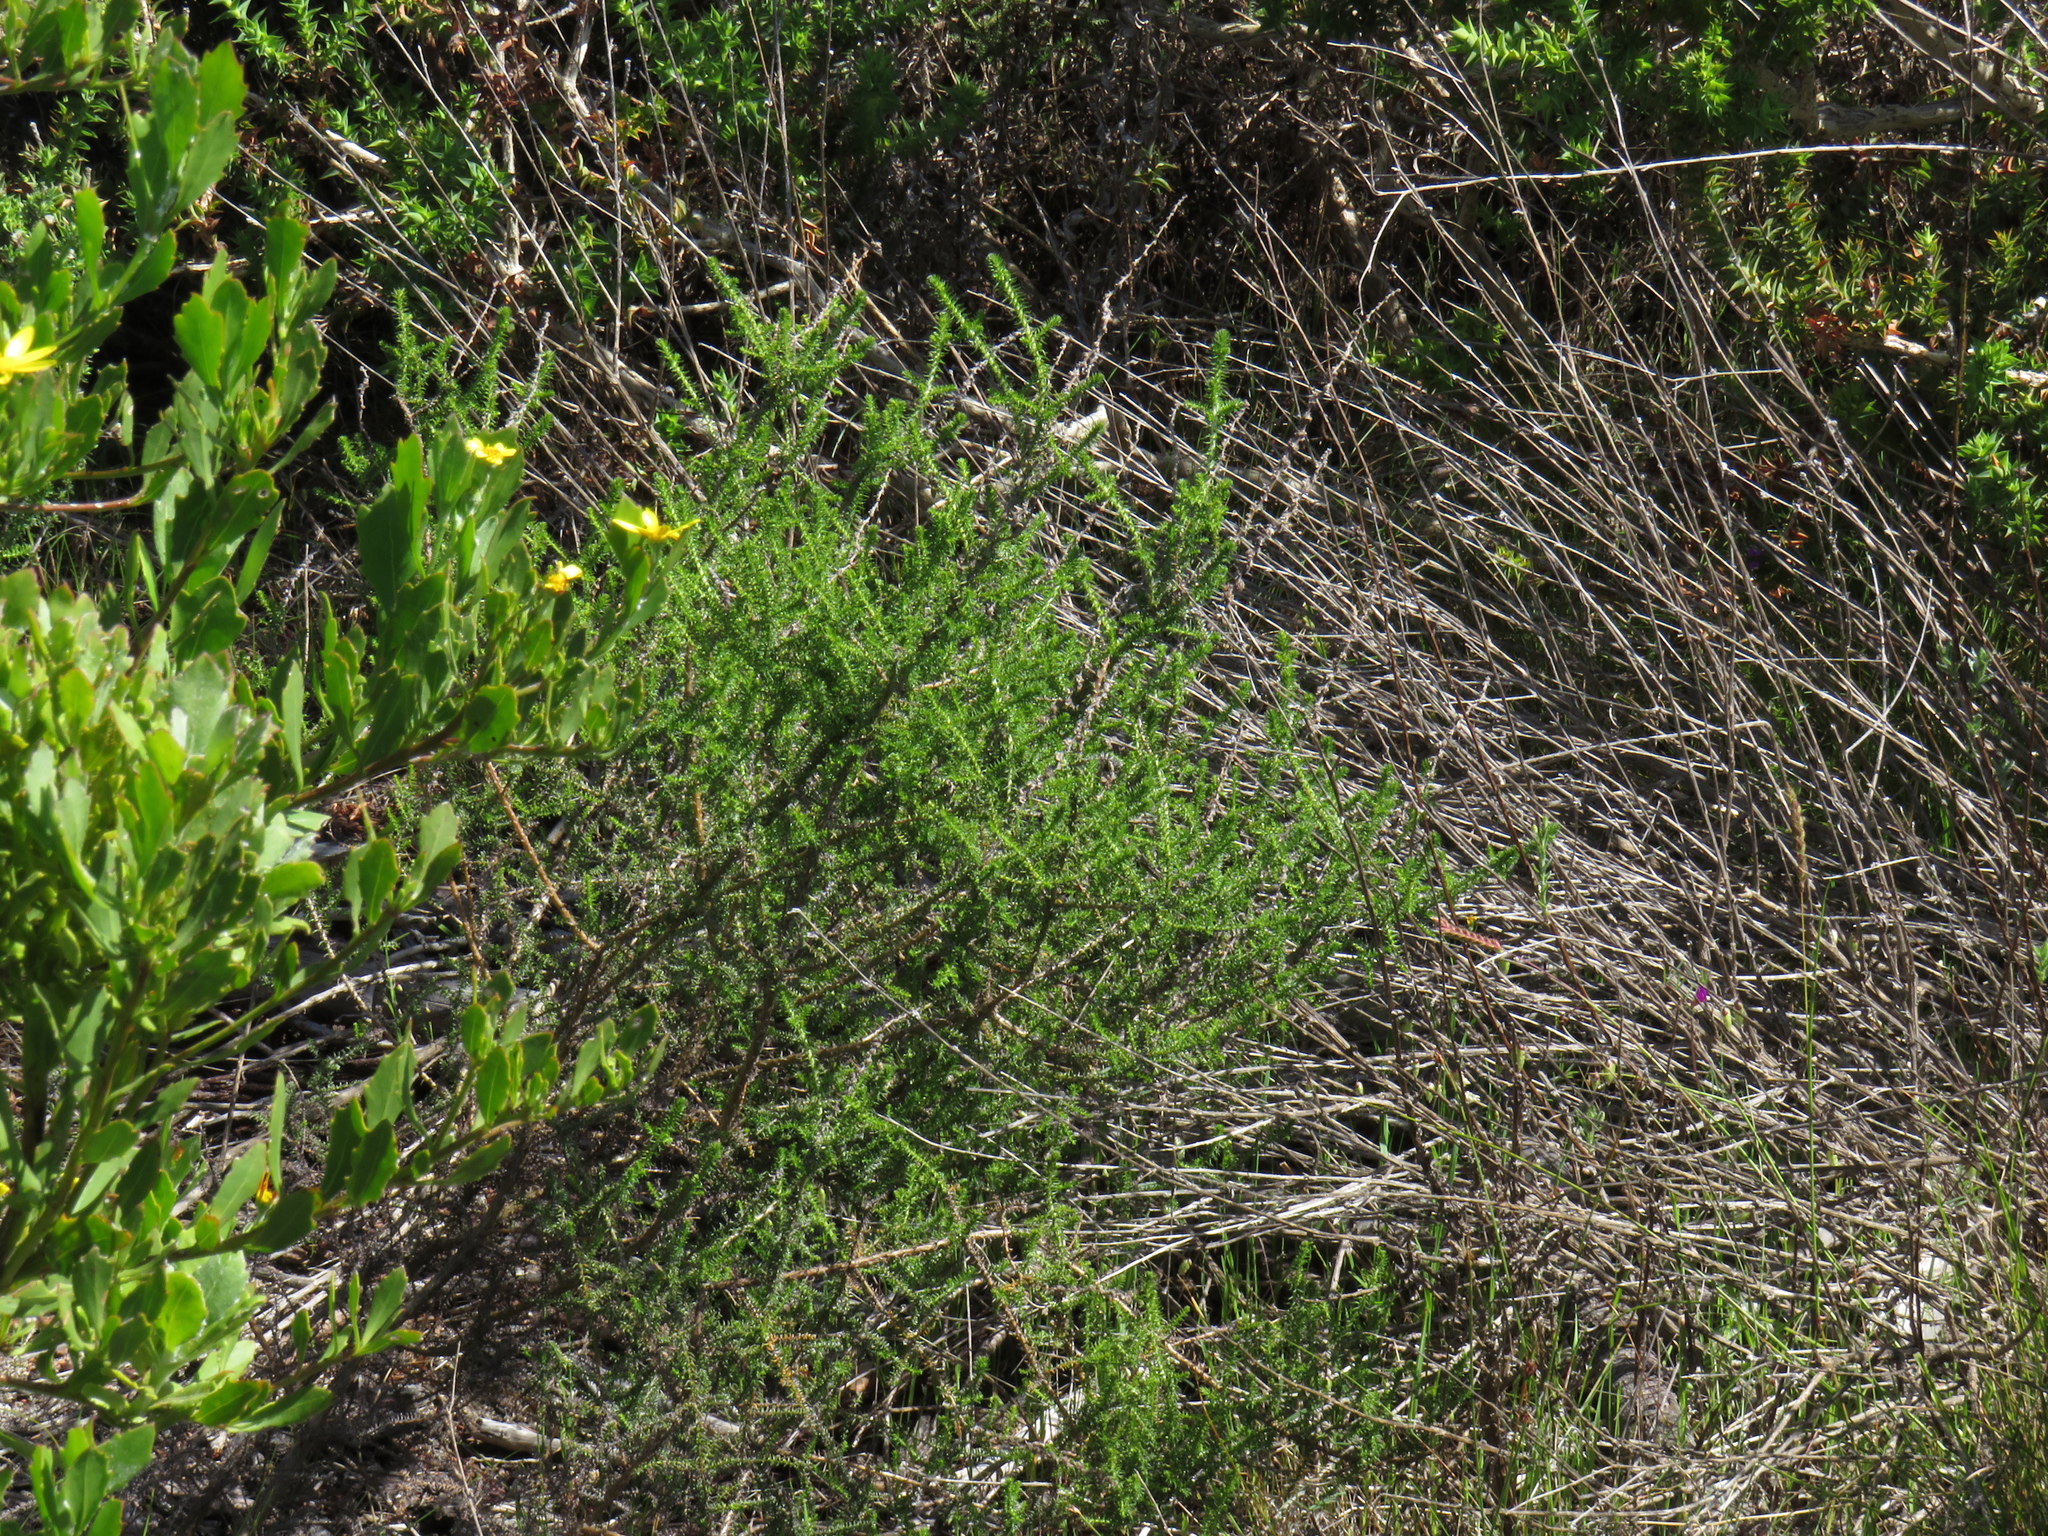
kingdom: Plantae
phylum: Tracheophyta
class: Magnoliopsida
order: Asterales
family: Asteraceae
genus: Seriphium
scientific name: Seriphium cinereum
